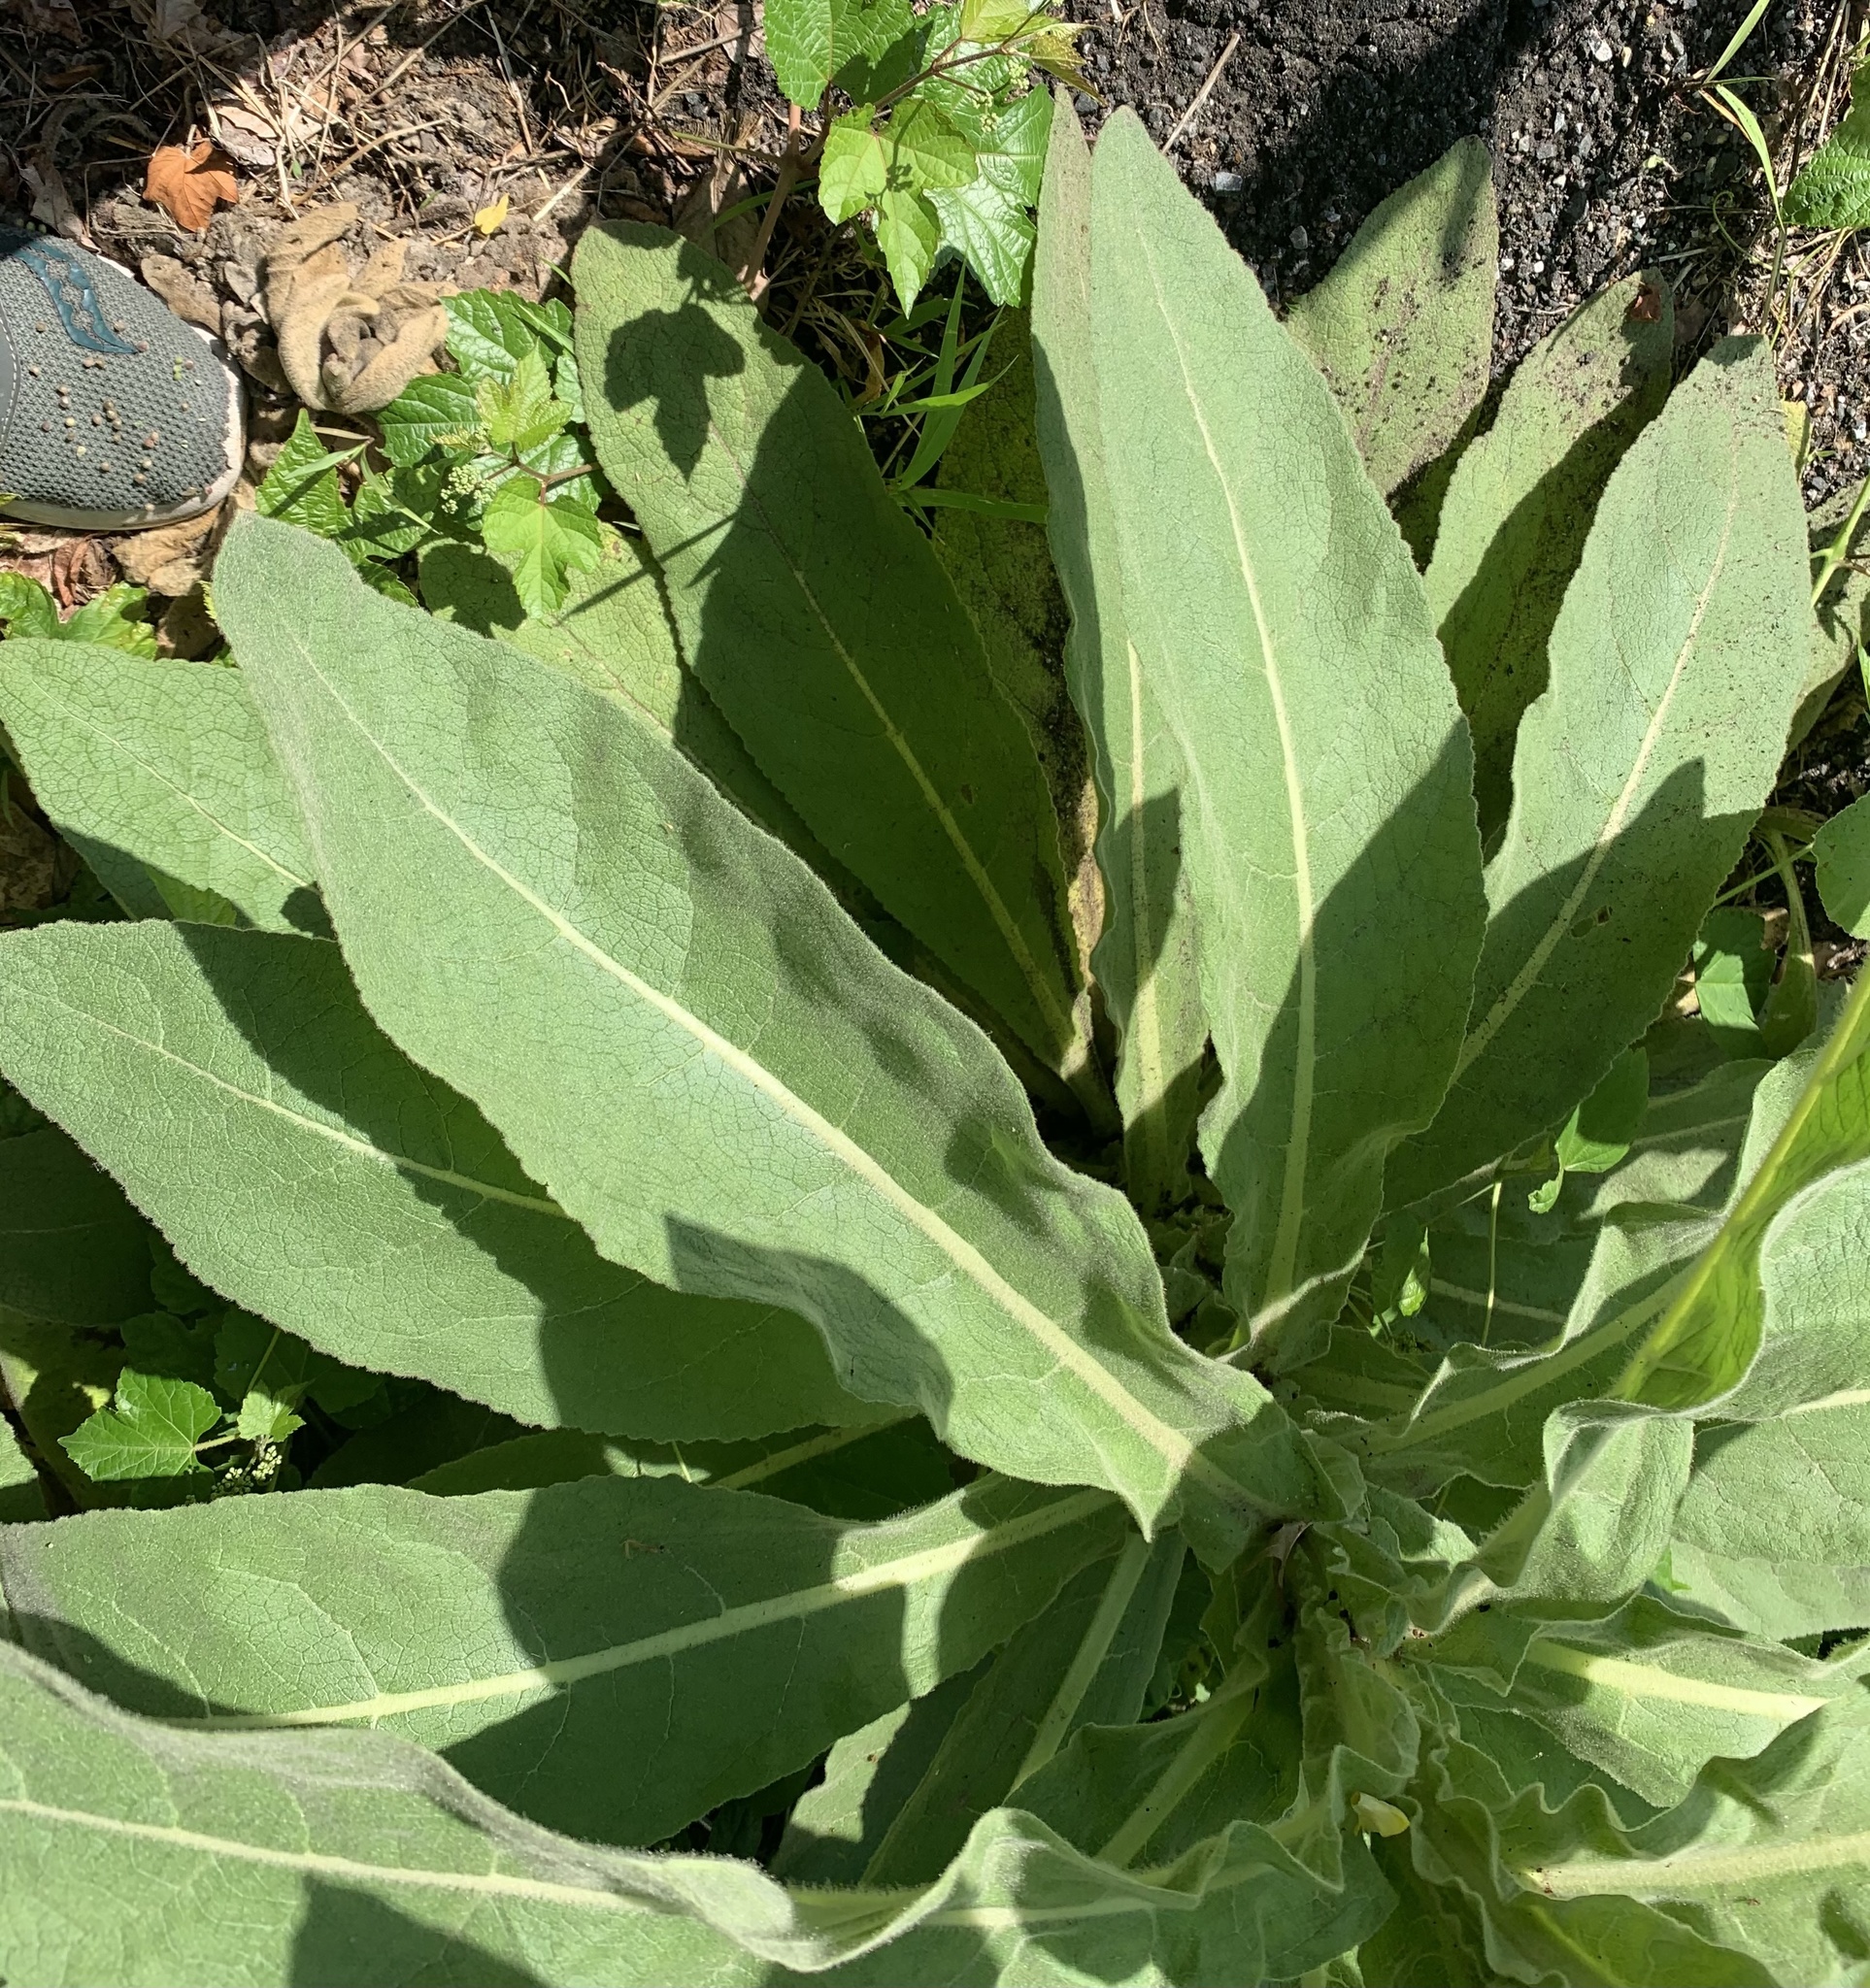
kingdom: Plantae
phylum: Tracheophyta
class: Magnoliopsida
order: Lamiales
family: Scrophulariaceae
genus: Verbascum
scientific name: Verbascum thapsus
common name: Common mullein
